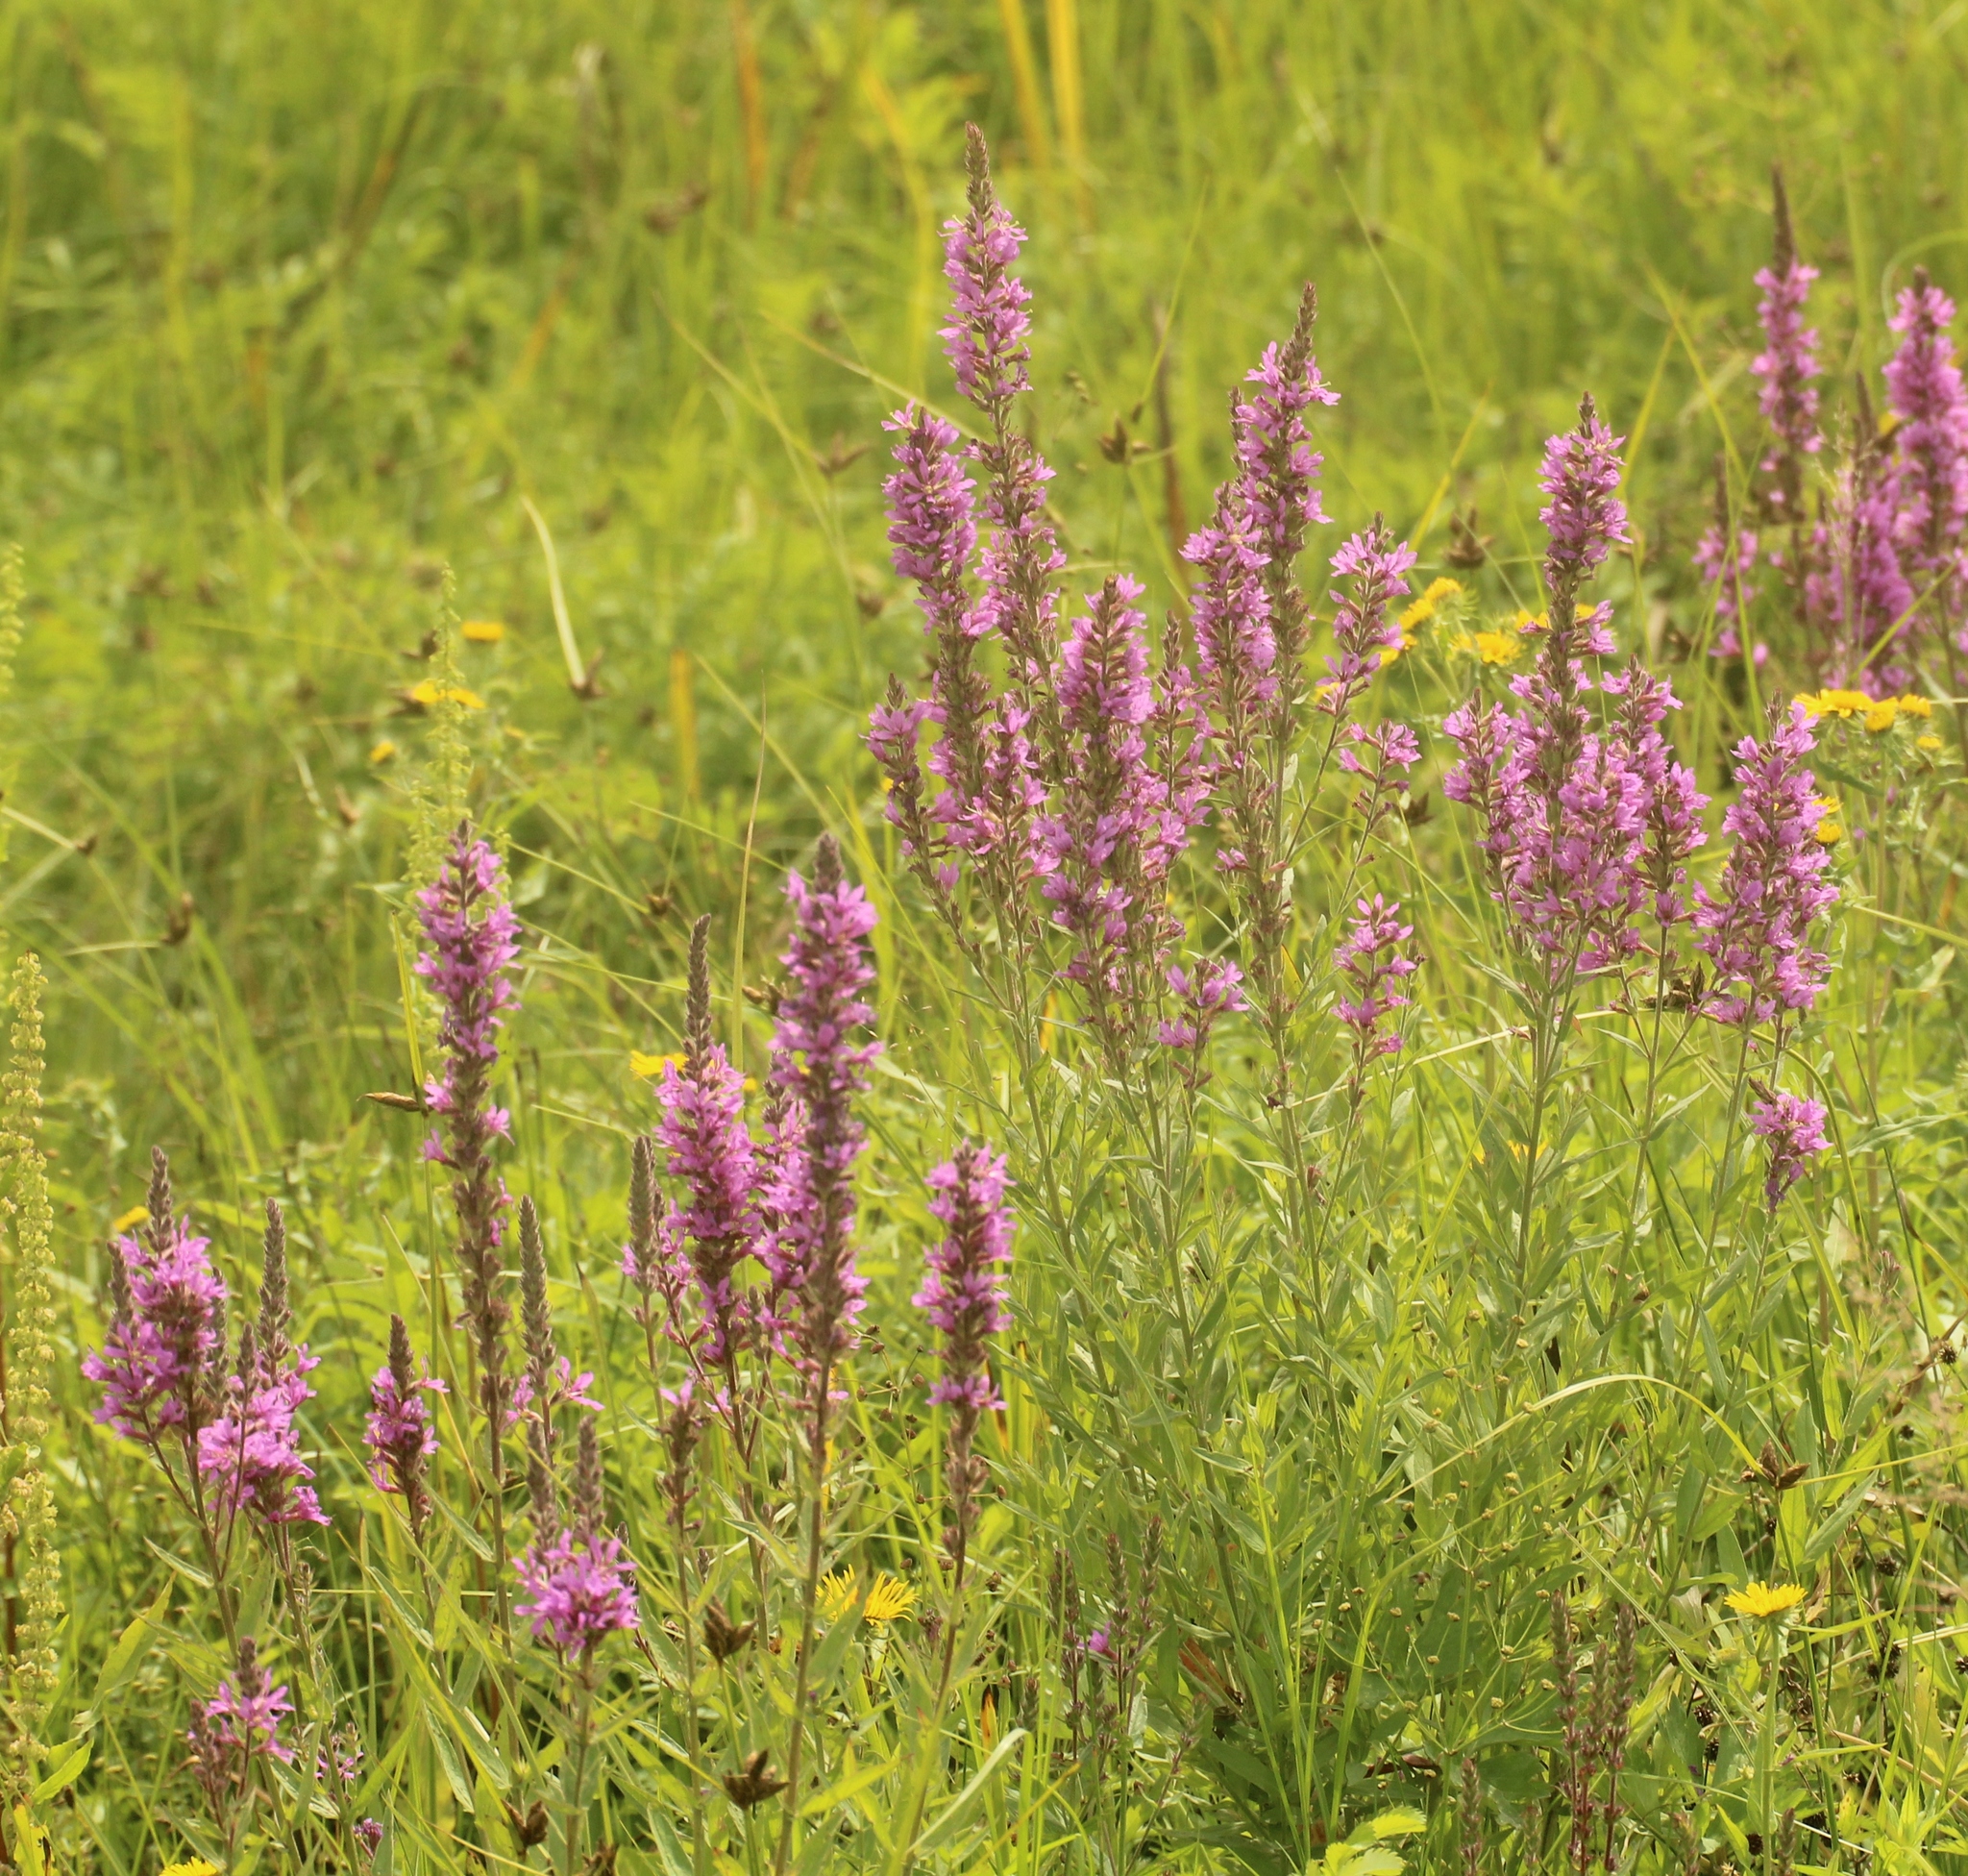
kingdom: Plantae
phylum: Tracheophyta
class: Magnoliopsida
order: Myrtales
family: Lythraceae
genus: Lythrum
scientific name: Lythrum salicaria
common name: Purple loosestrife
